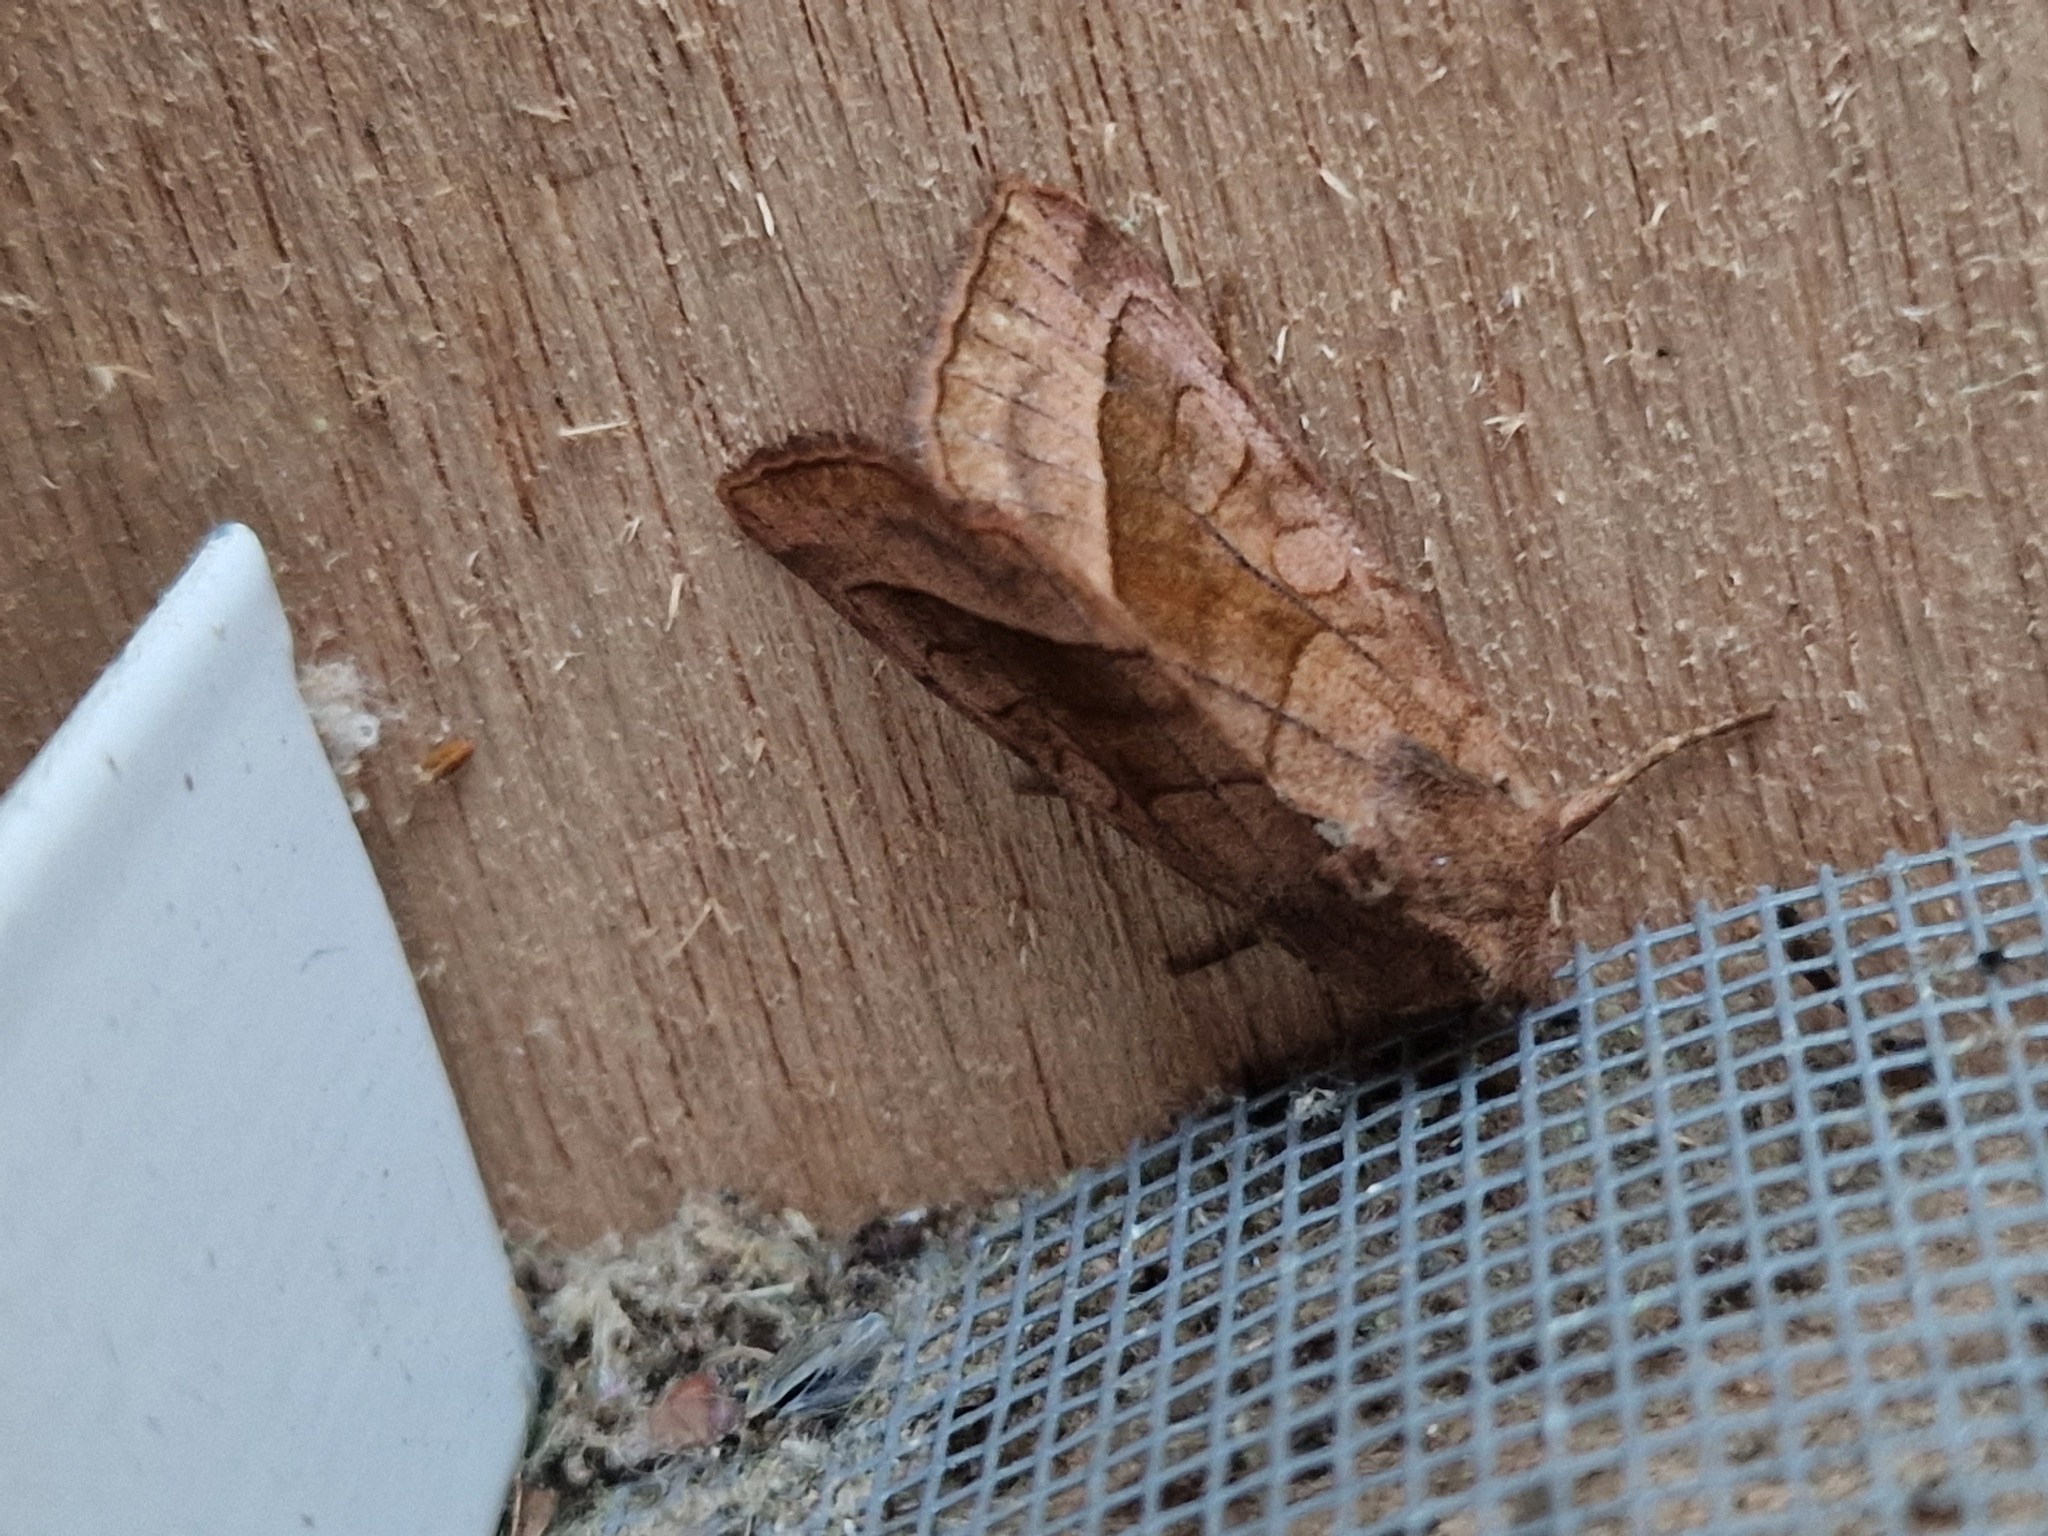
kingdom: Animalia
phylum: Arthropoda
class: Insecta
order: Lepidoptera
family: Noctuidae
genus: Hydraecia
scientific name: Hydraecia micacea
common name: Rosy rustic
